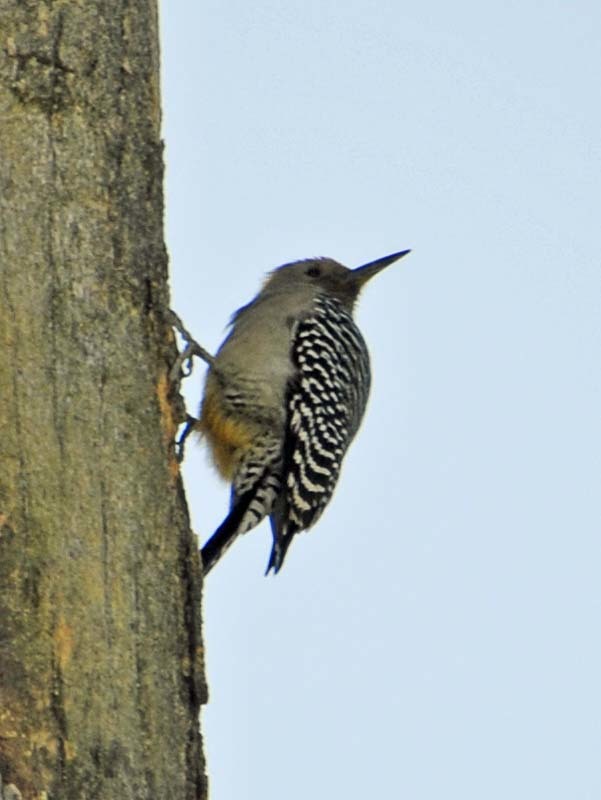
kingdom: Animalia
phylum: Chordata
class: Aves
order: Piciformes
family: Picidae
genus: Melanerpes
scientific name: Melanerpes uropygialis
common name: Gila woodpecker
